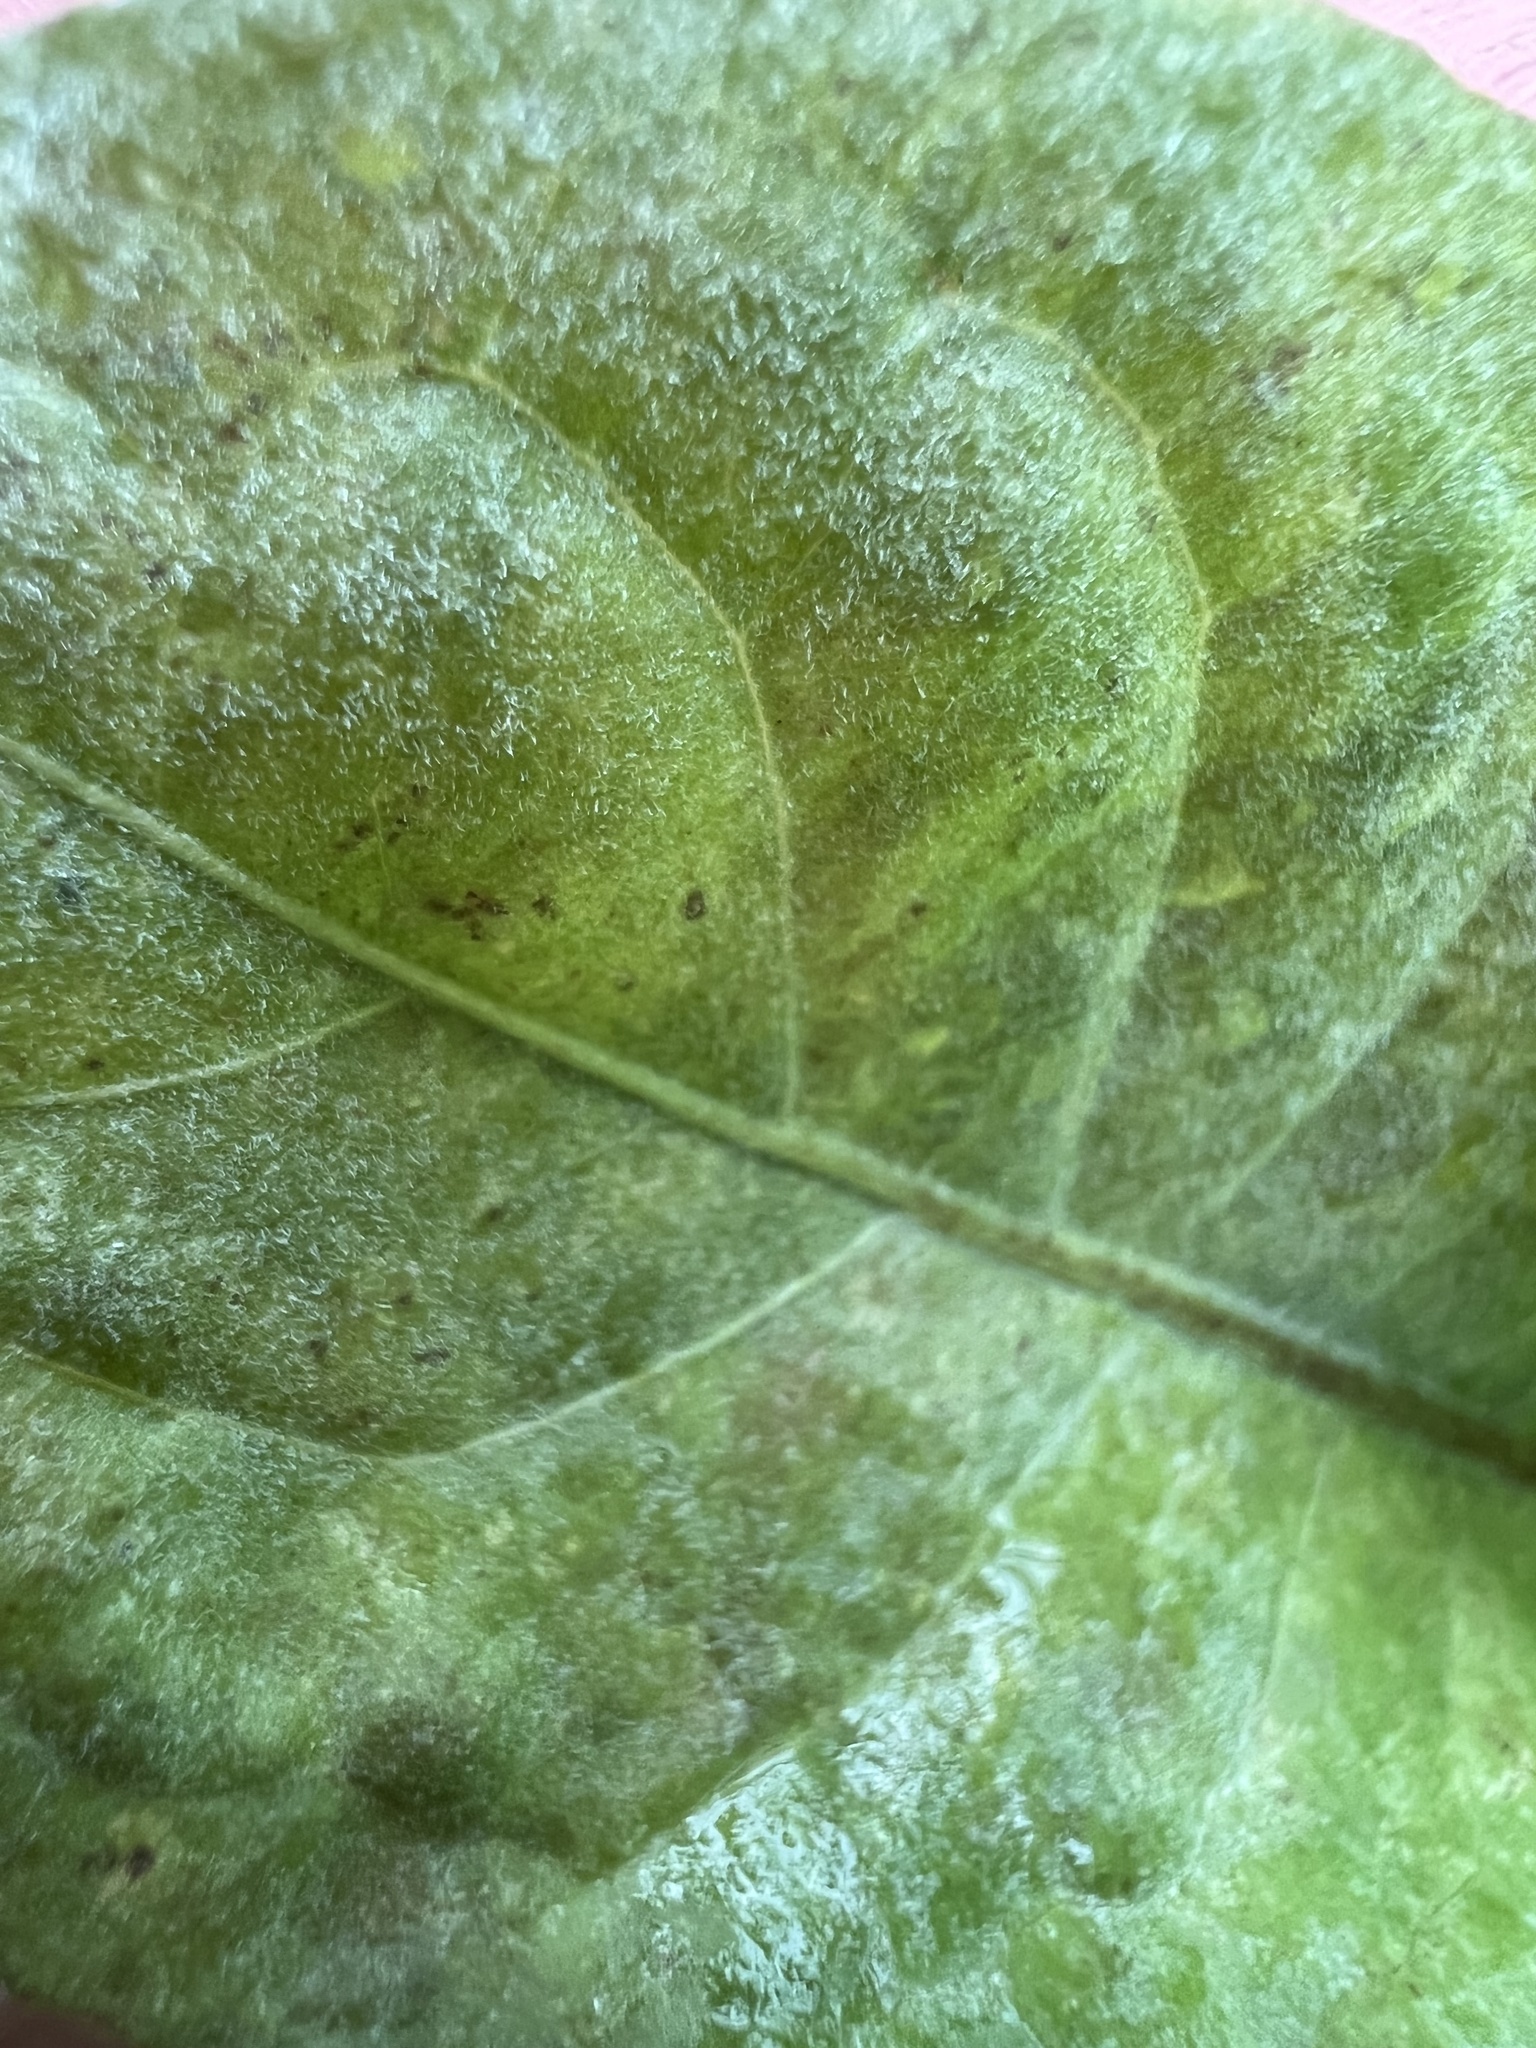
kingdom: Fungi
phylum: Ascomycota
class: Leotiomycetes
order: Helotiales
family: Erysiphaceae
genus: Podosphaera
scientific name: Podosphaera erigerontis-canadensis
